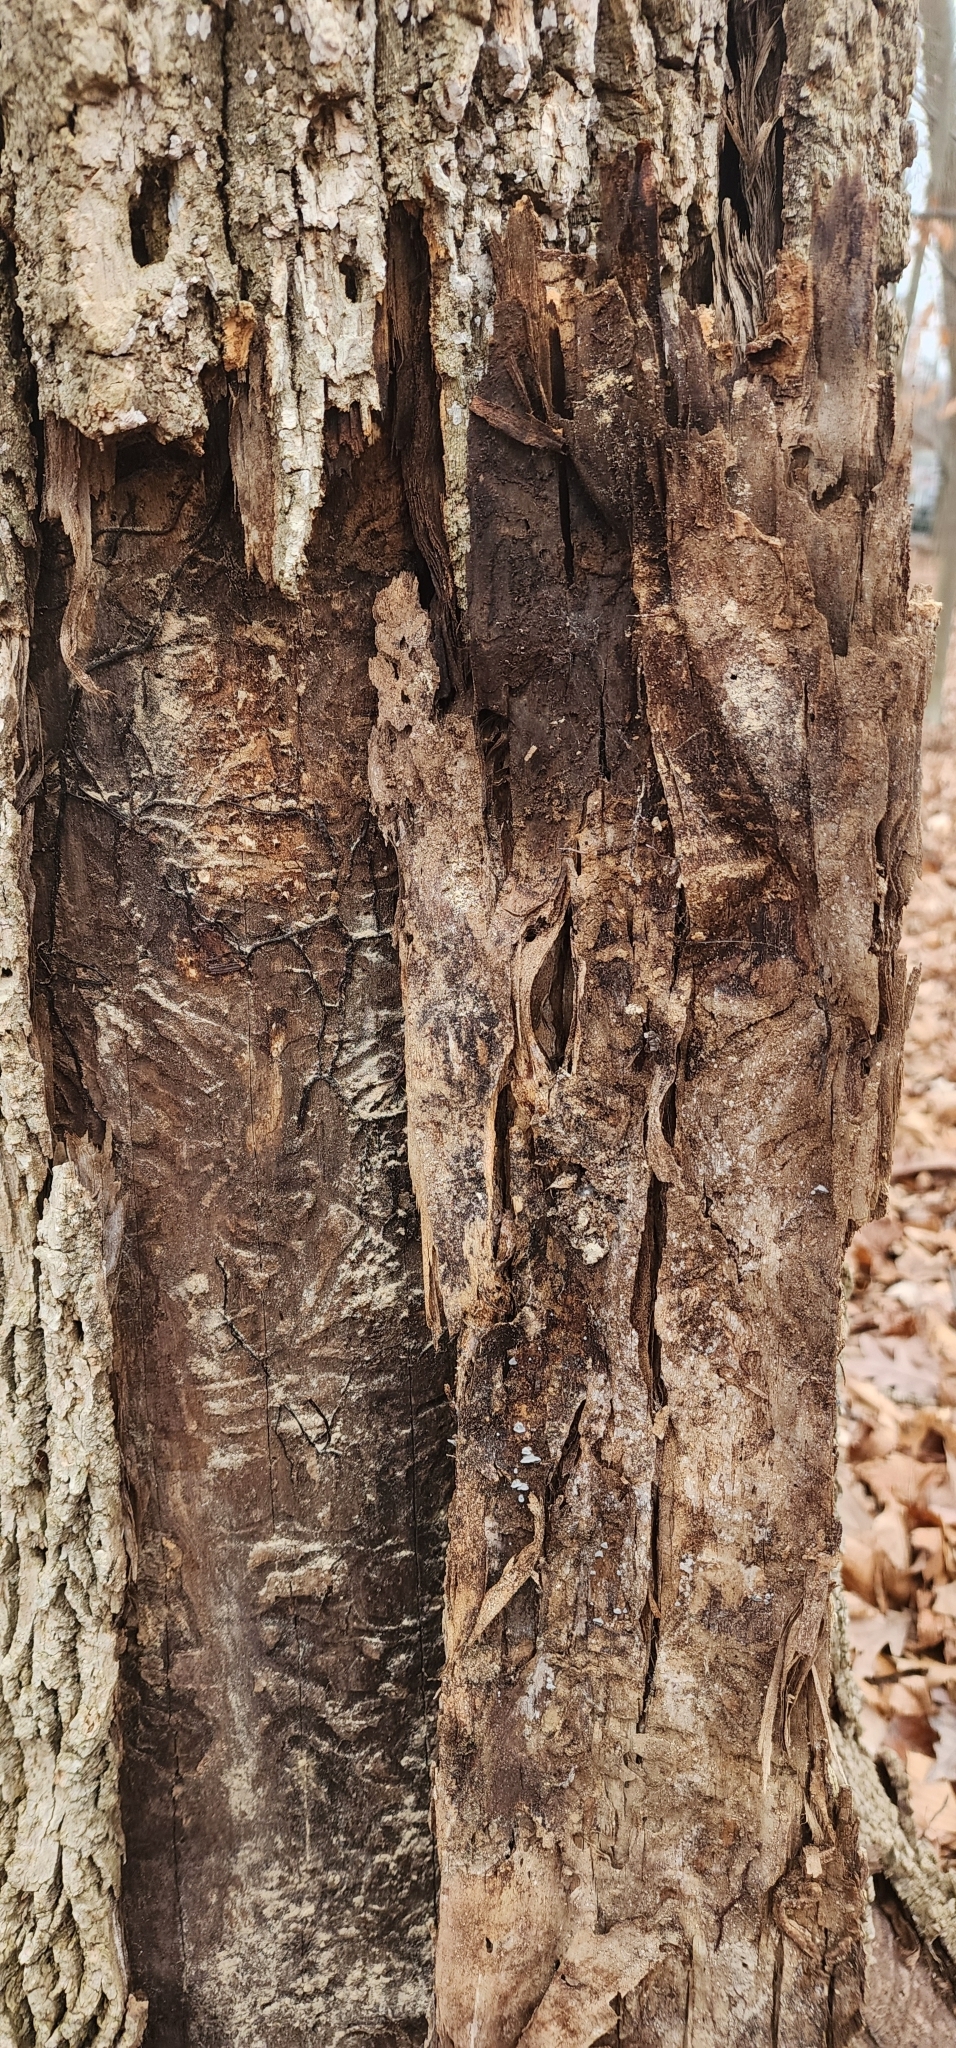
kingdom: Animalia
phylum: Arthropoda
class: Insecta
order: Coleoptera
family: Buprestidae
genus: Agrilus
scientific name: Agrilus planipennis
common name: Emerald ash borer
